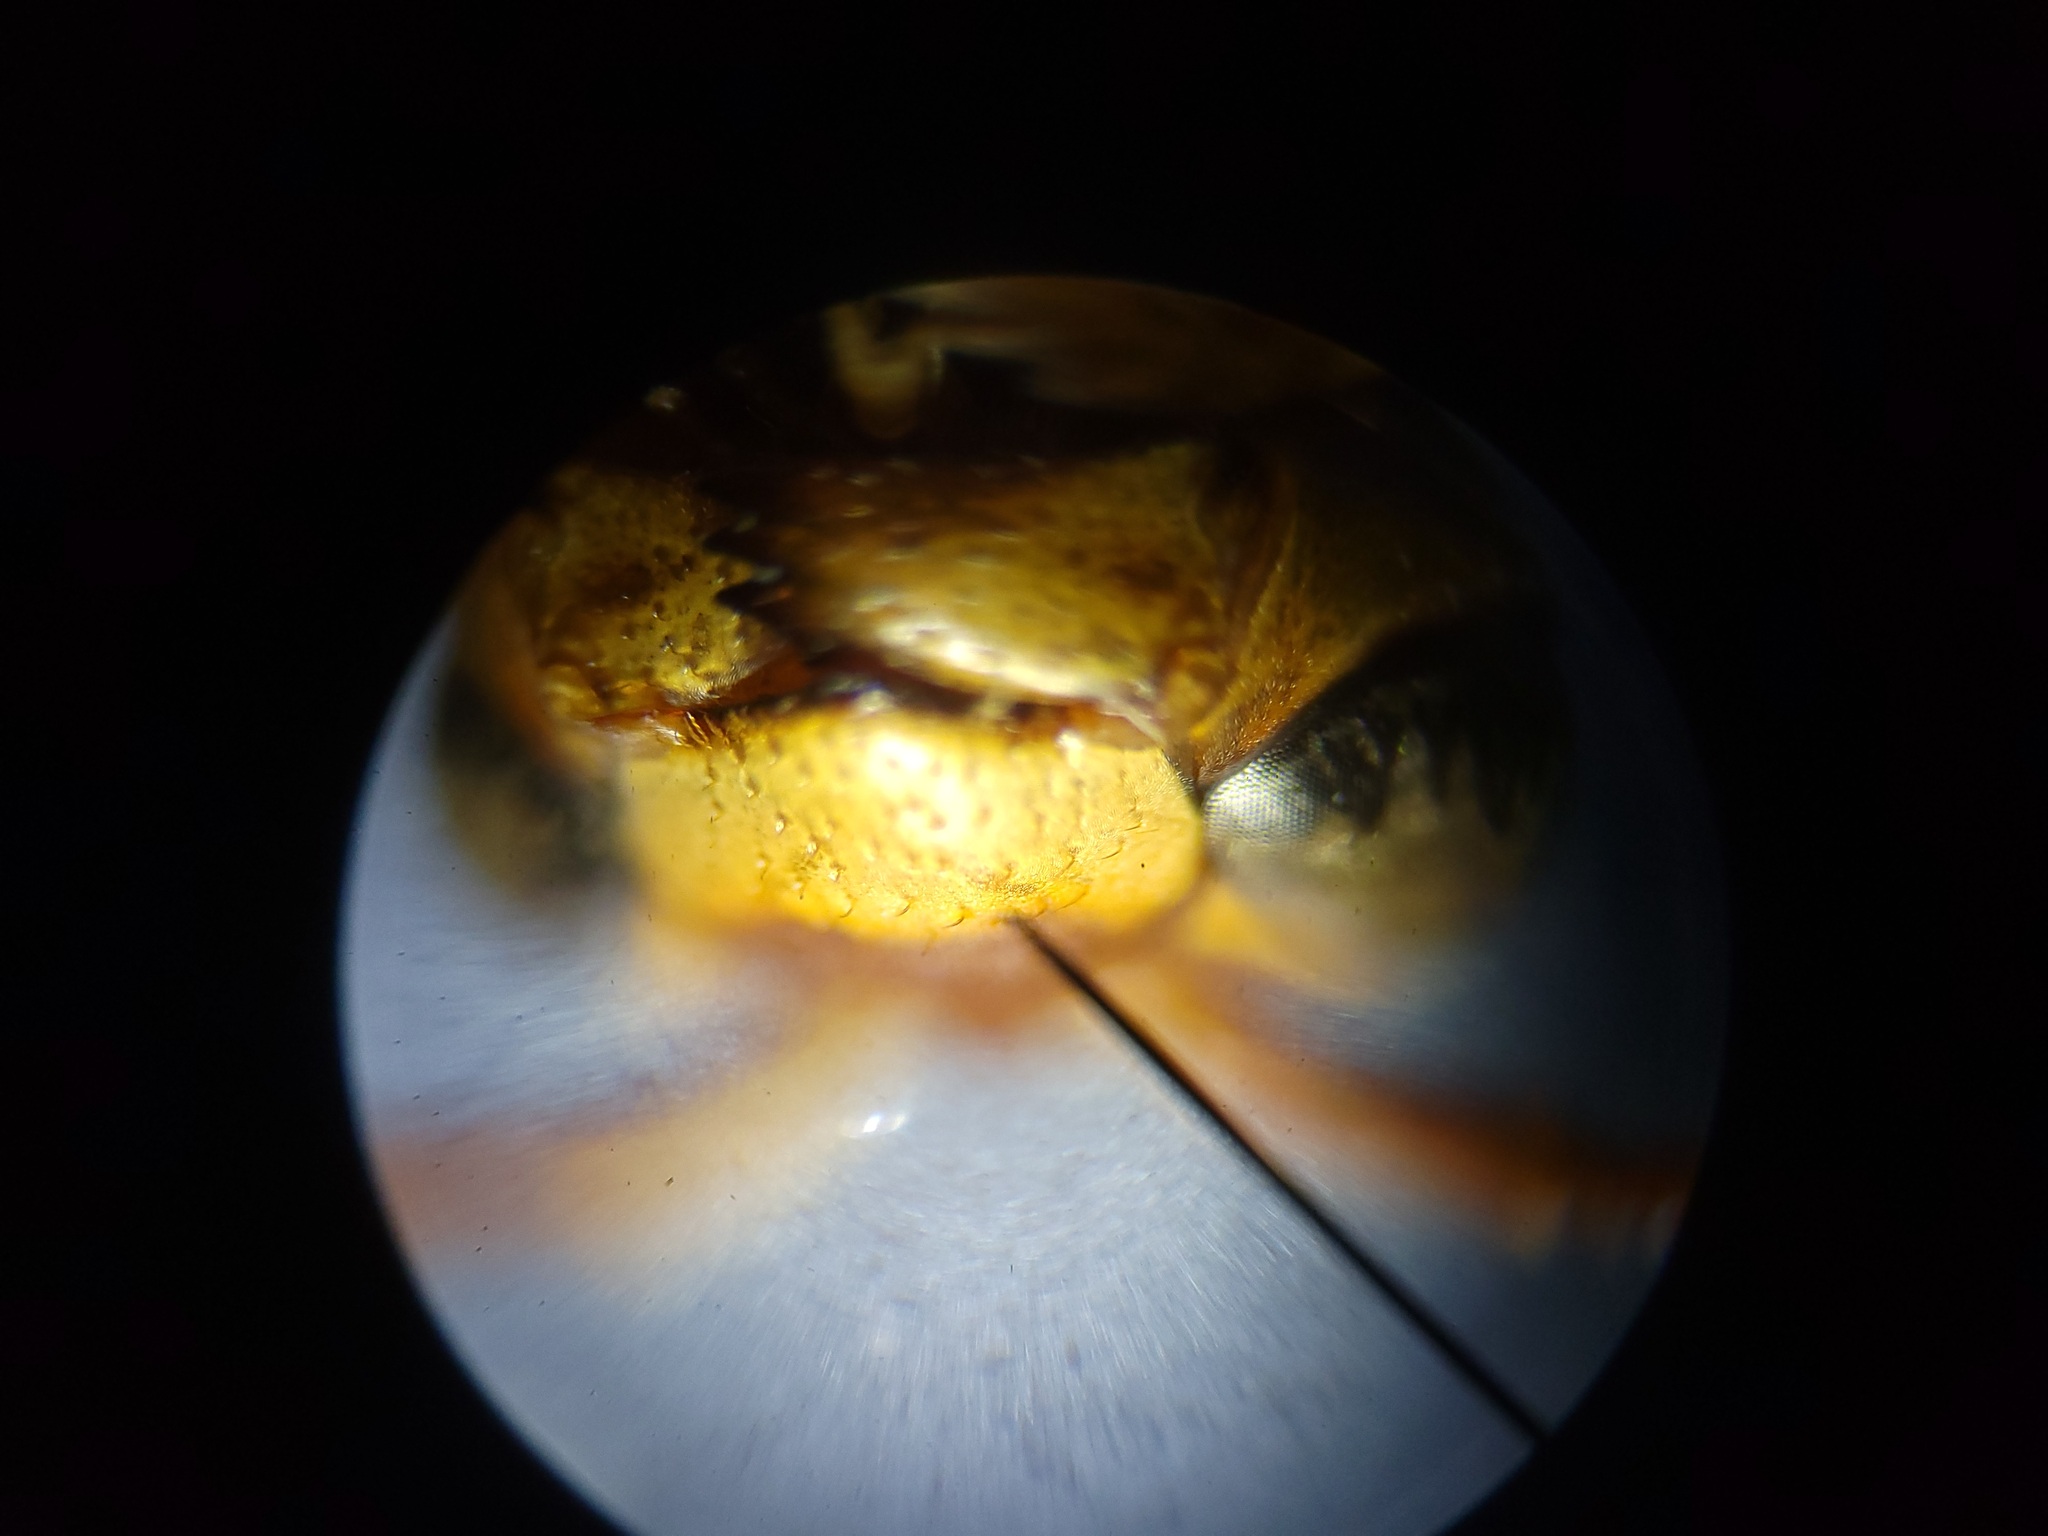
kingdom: Animalia
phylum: Arthropoda
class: Insecta
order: Hymenoptera
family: Eumenidae
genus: Polistes
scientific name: Polistes bellicosus
